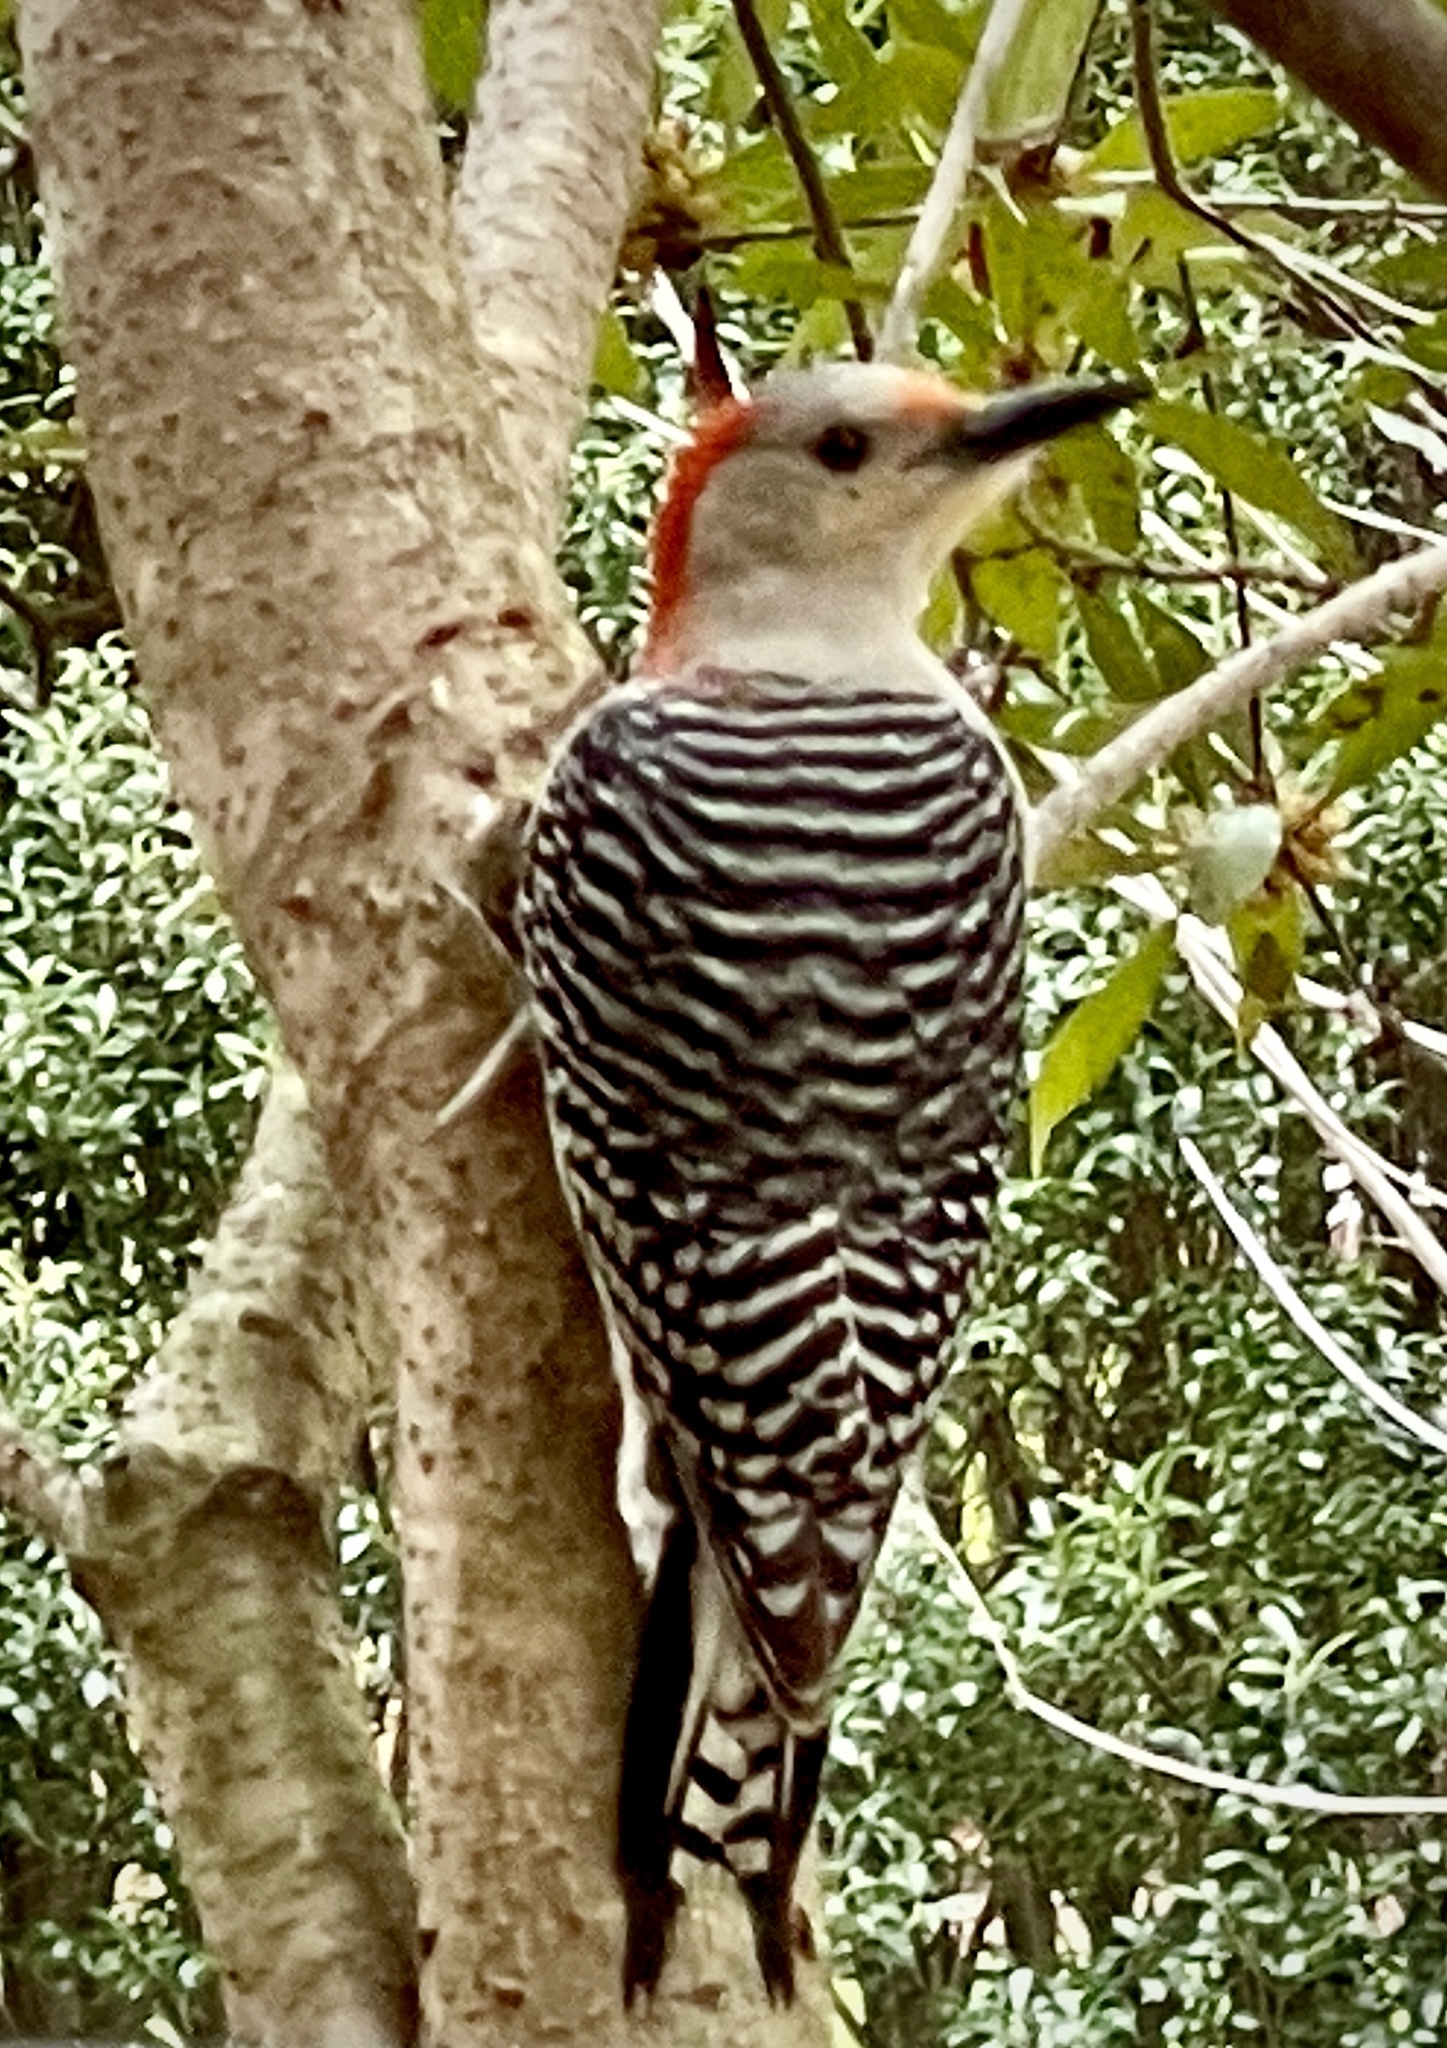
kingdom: Animalia
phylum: Chordata
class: Aves
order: Piciformes
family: Picidae
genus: Melanerpes
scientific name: Melanerpes carolinus
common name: Red-bellied woodpecker
